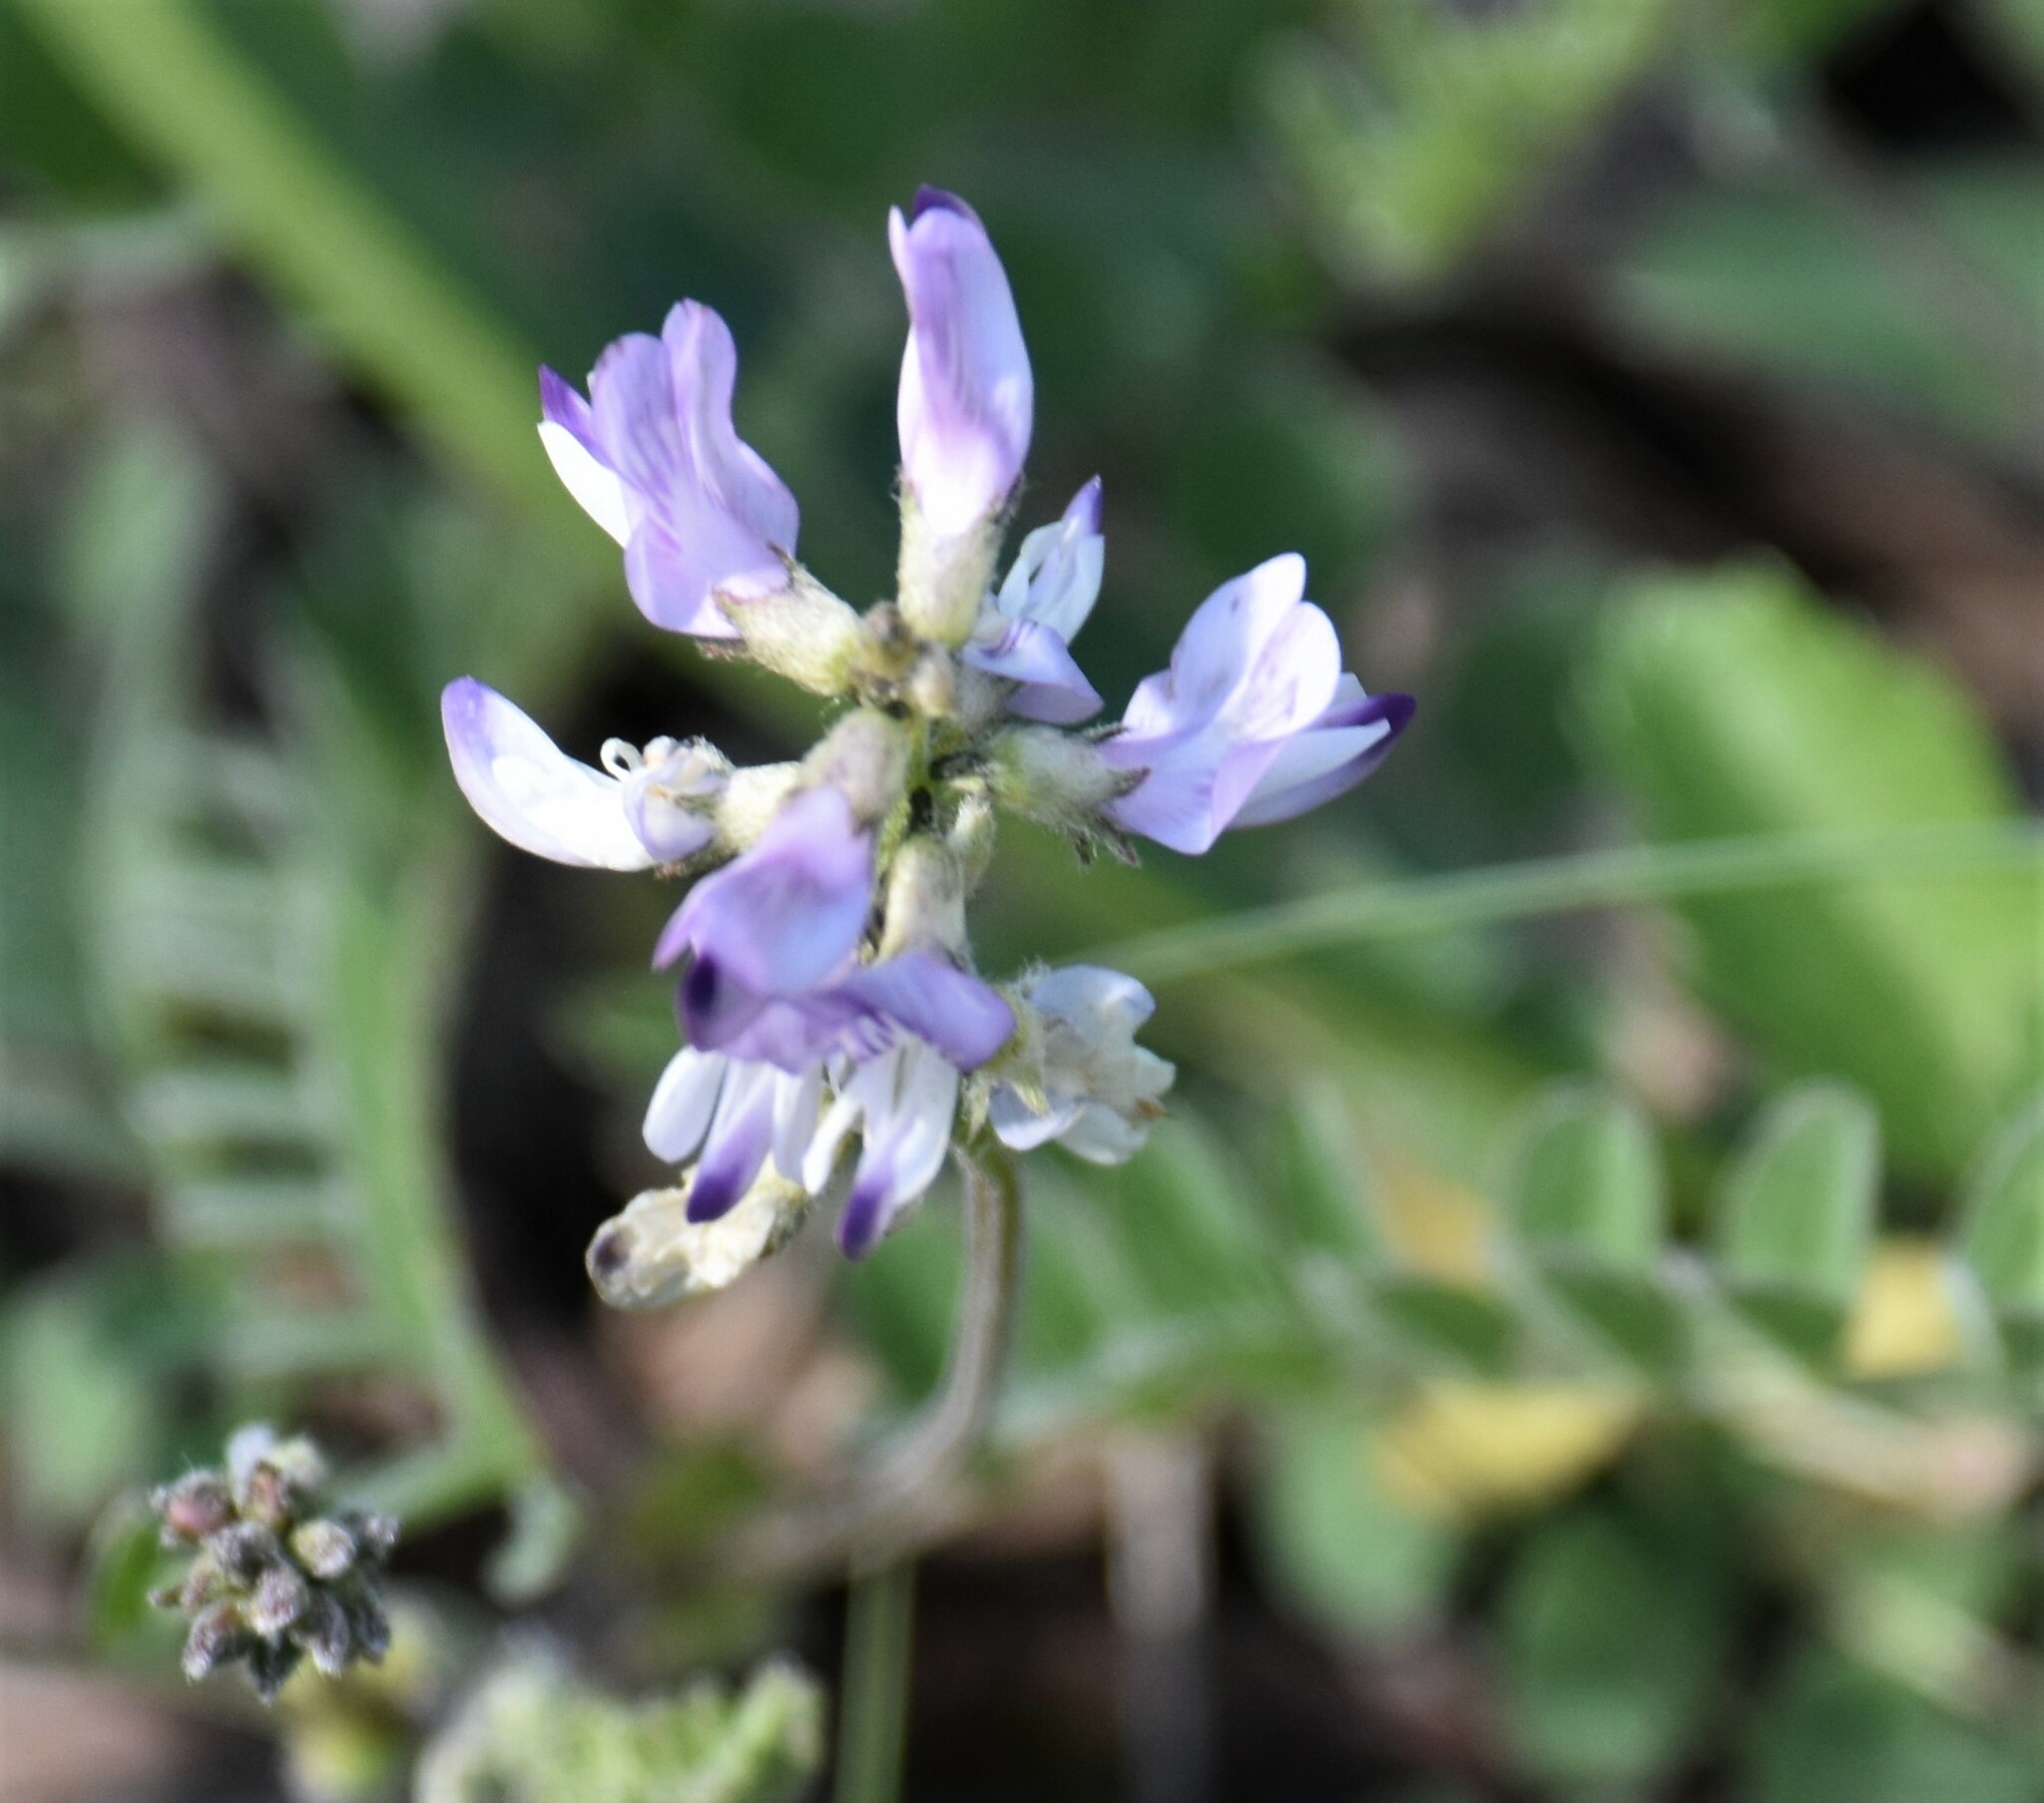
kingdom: Plantae
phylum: Tracheophyta
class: Magnoliopsida
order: Fabales
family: Fabaceae
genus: Astragalus
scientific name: Astragalus alpinus
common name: Alpine milk-vetch
